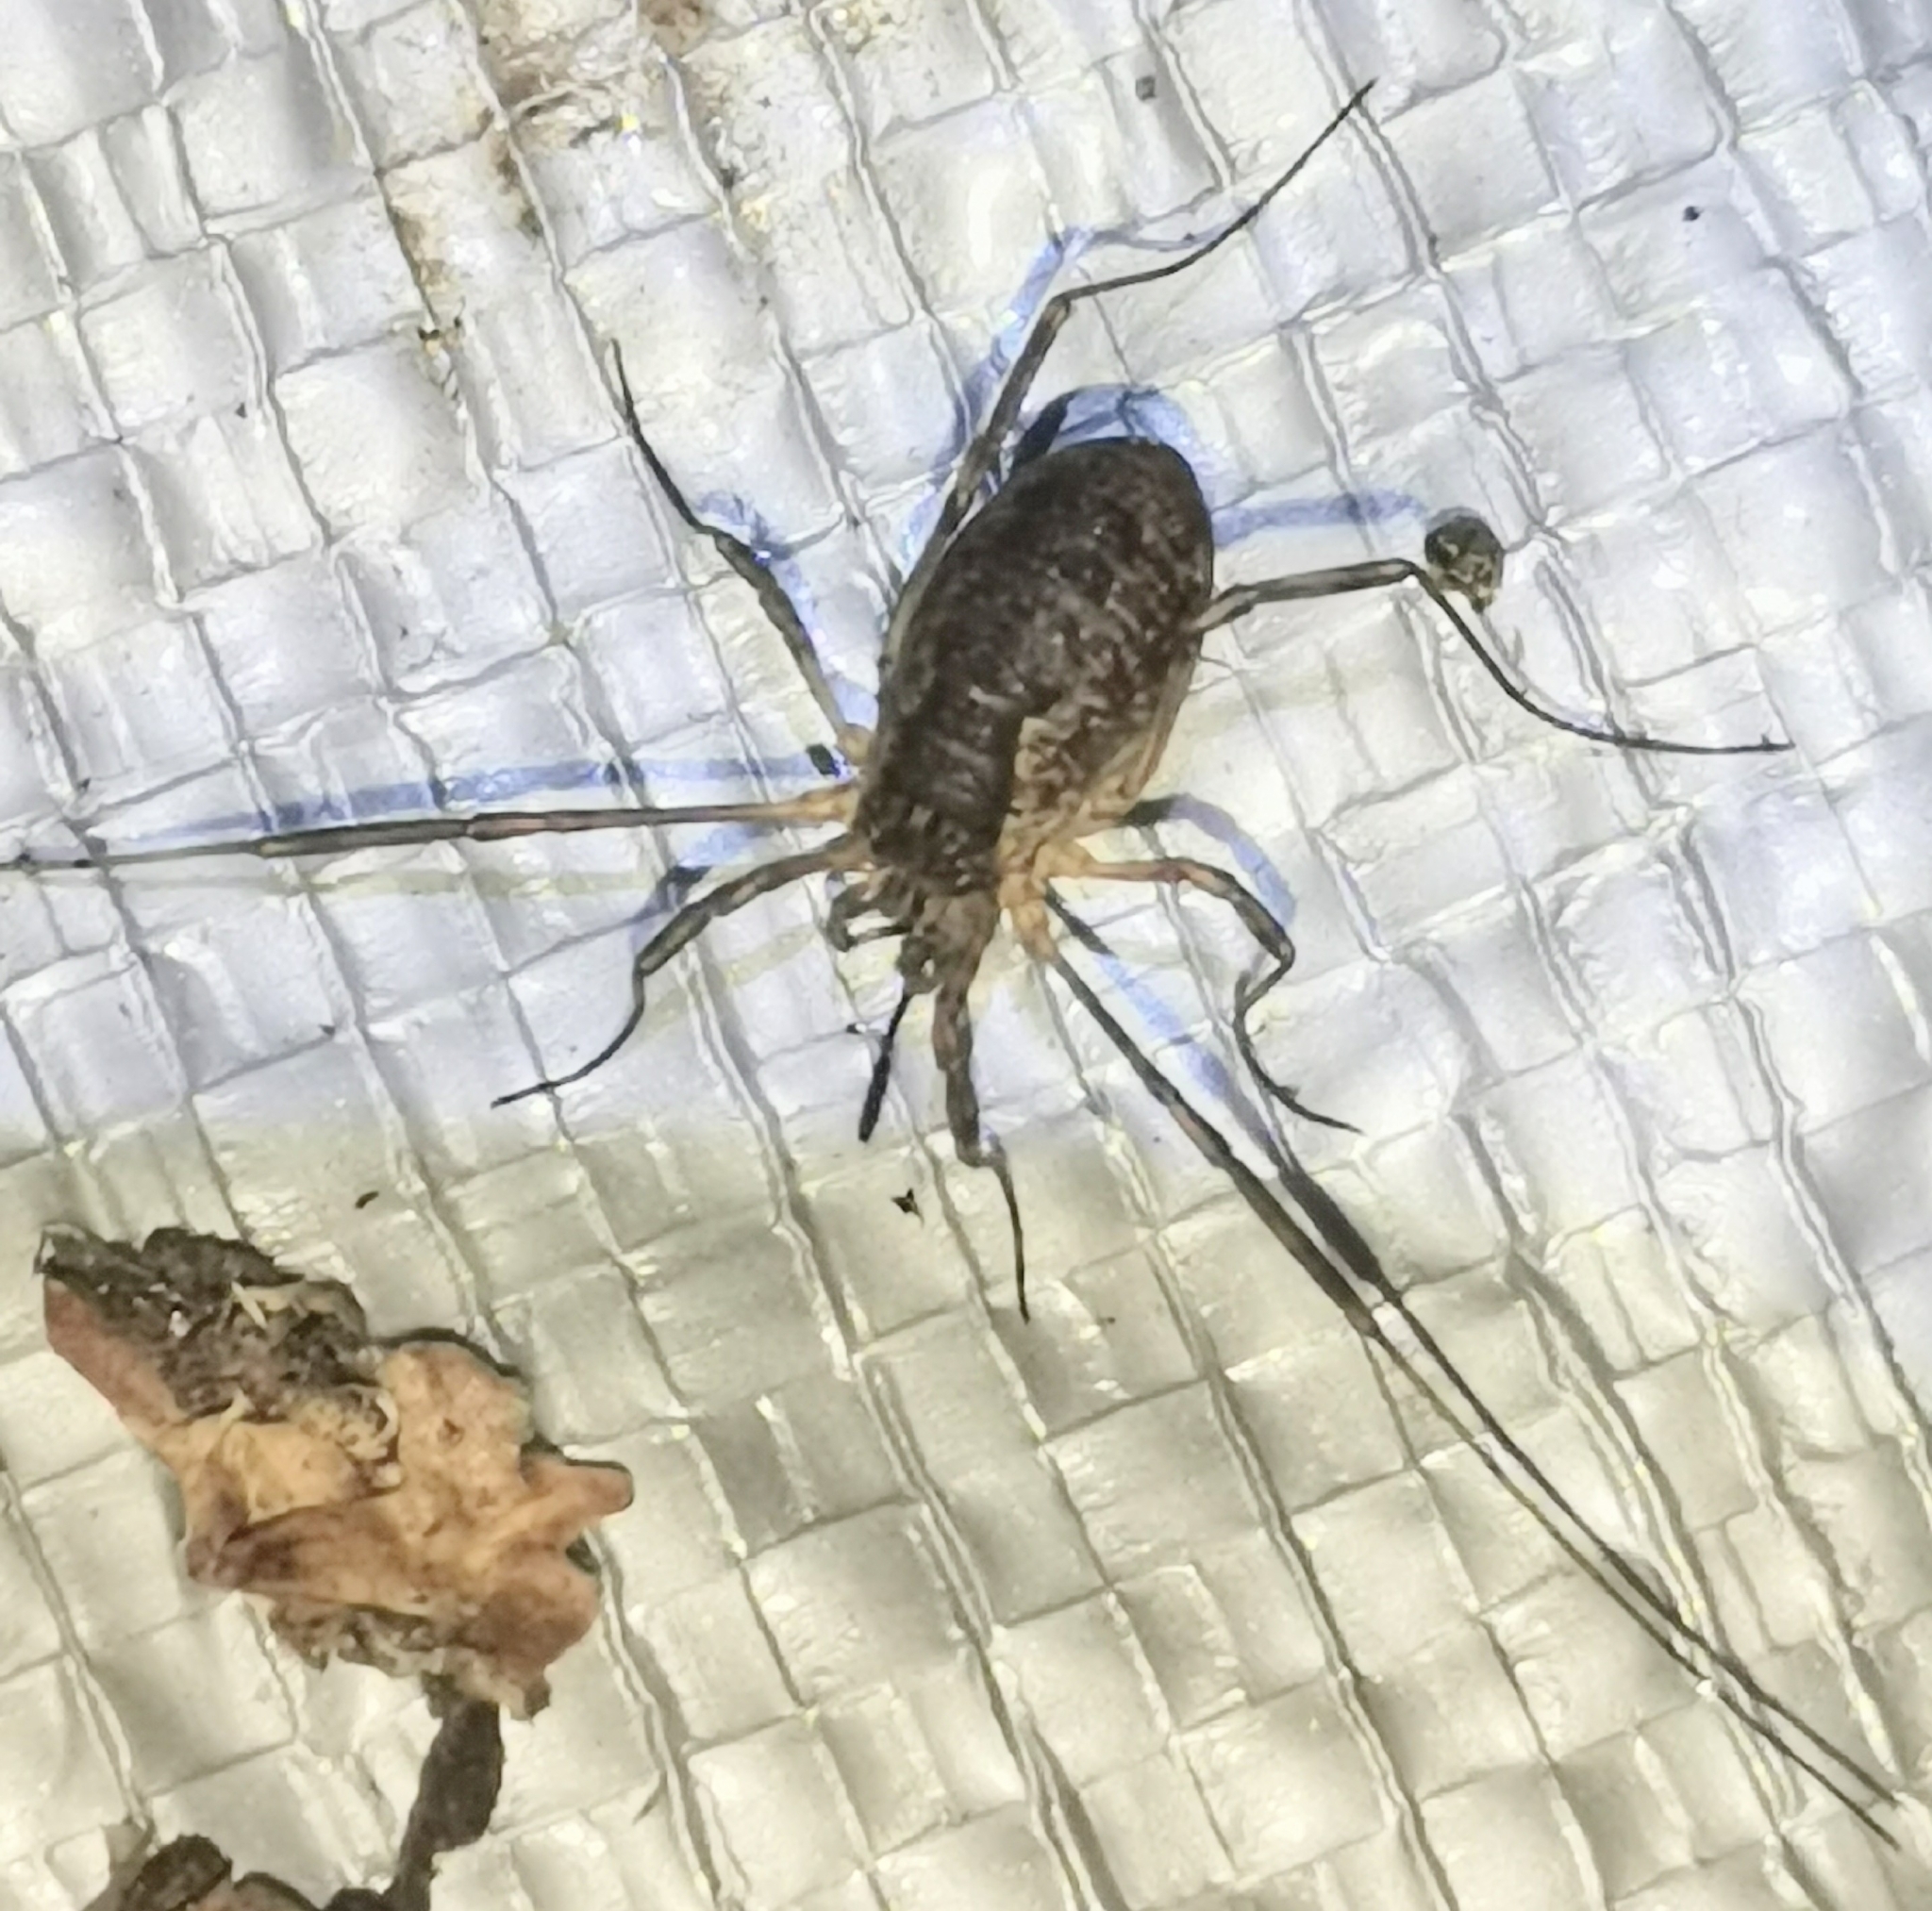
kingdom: Animalia
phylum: Arthropoda
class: Arachnida
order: Opiliones
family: Phalangiidae
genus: Oligolophus
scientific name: Oligolophus tridens
